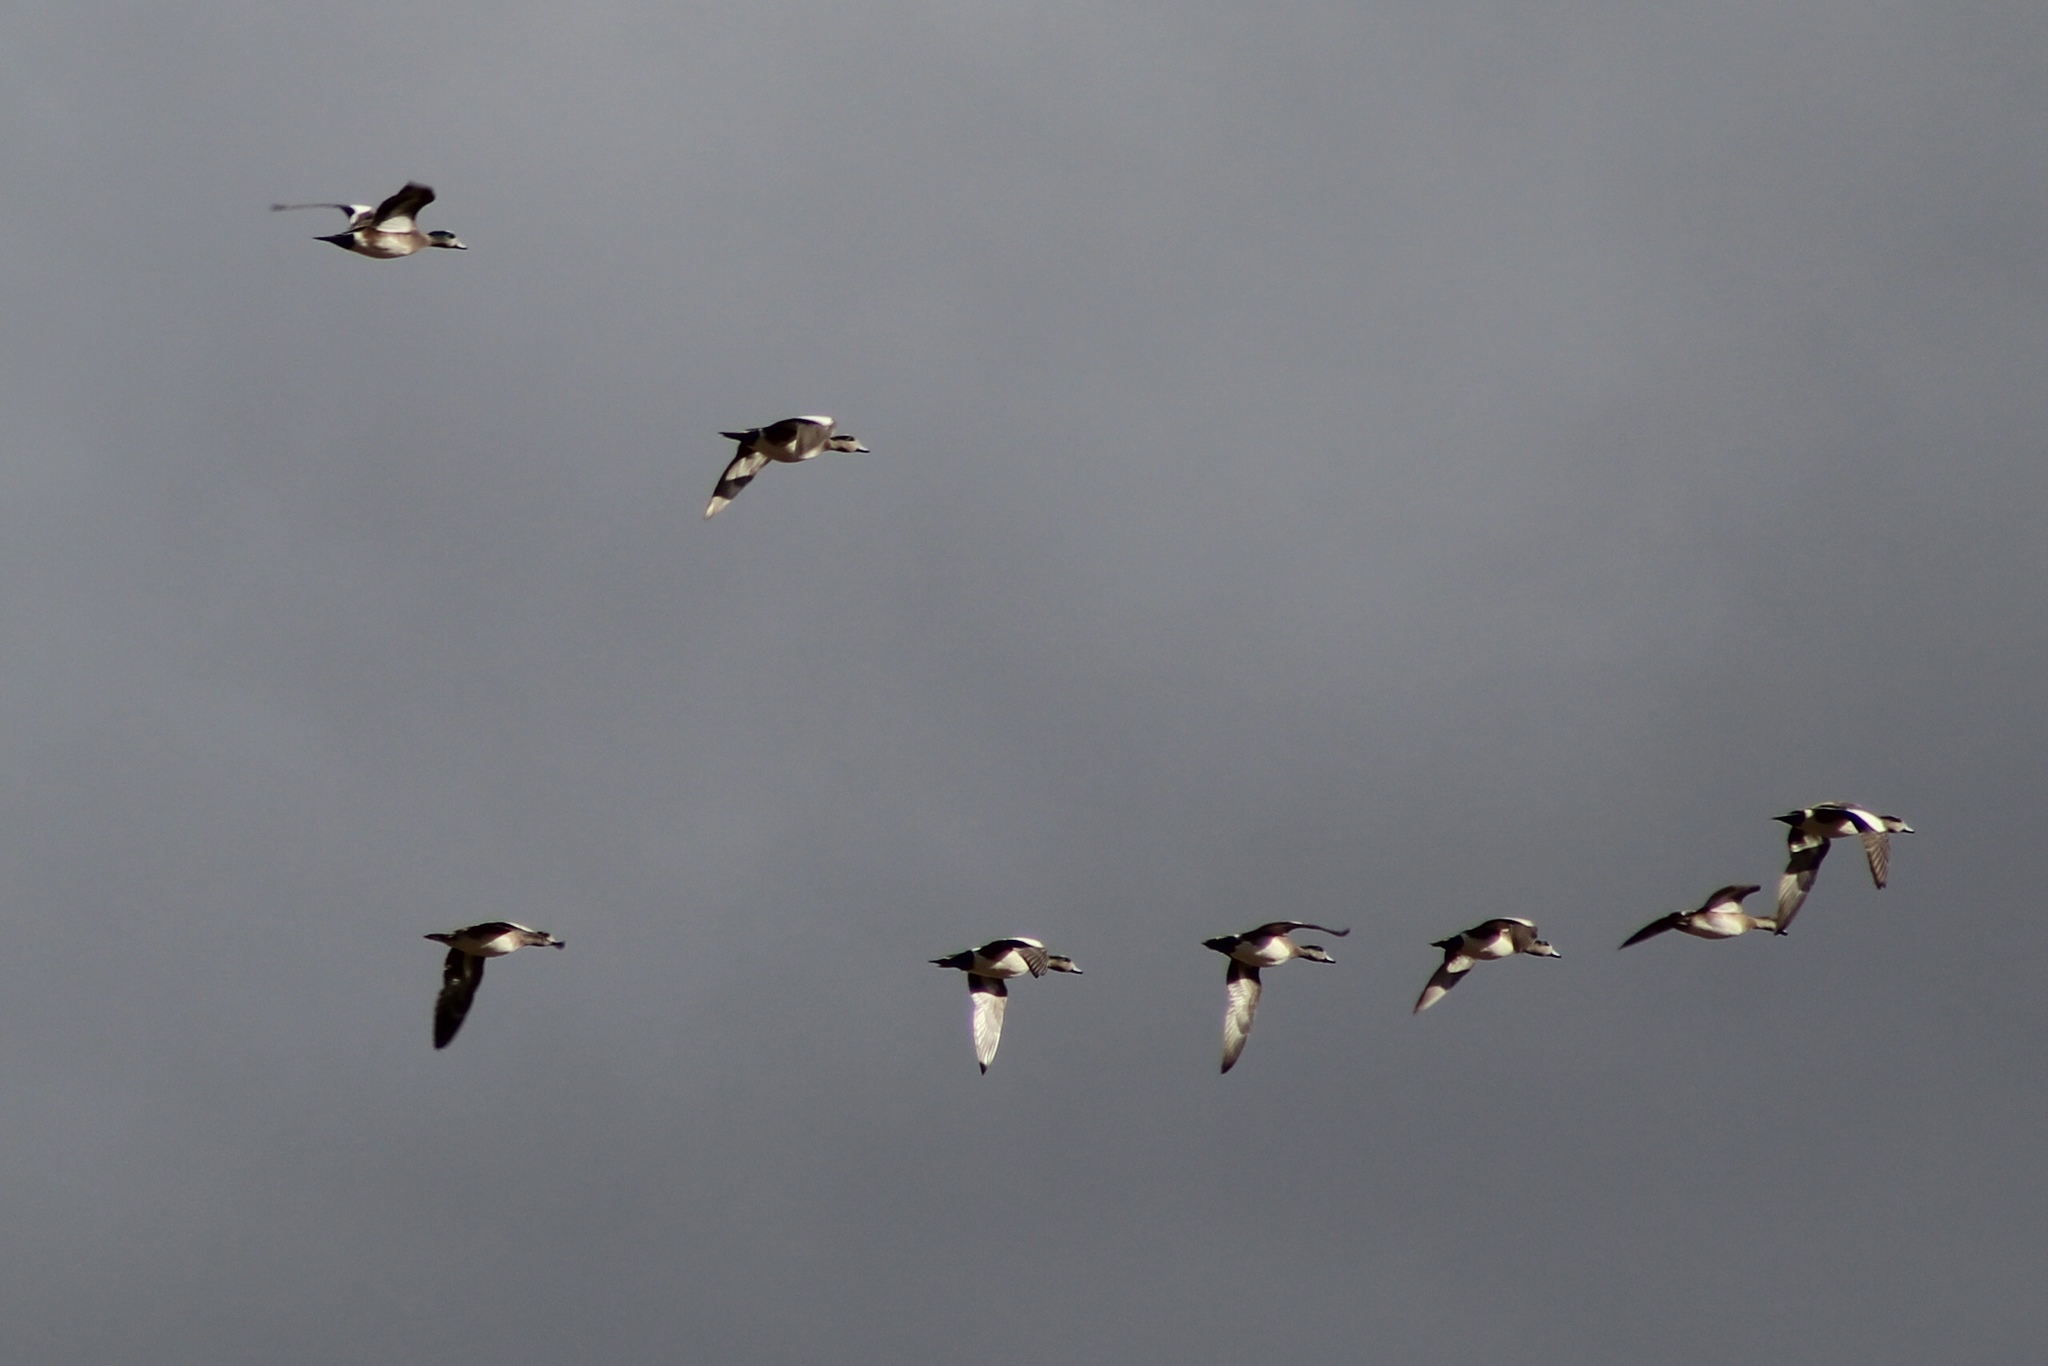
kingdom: Animalia
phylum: Chordata
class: Aves
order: Anseriformes
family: Anatidae
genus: Mareca
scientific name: Mareca americana
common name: American wigeon
